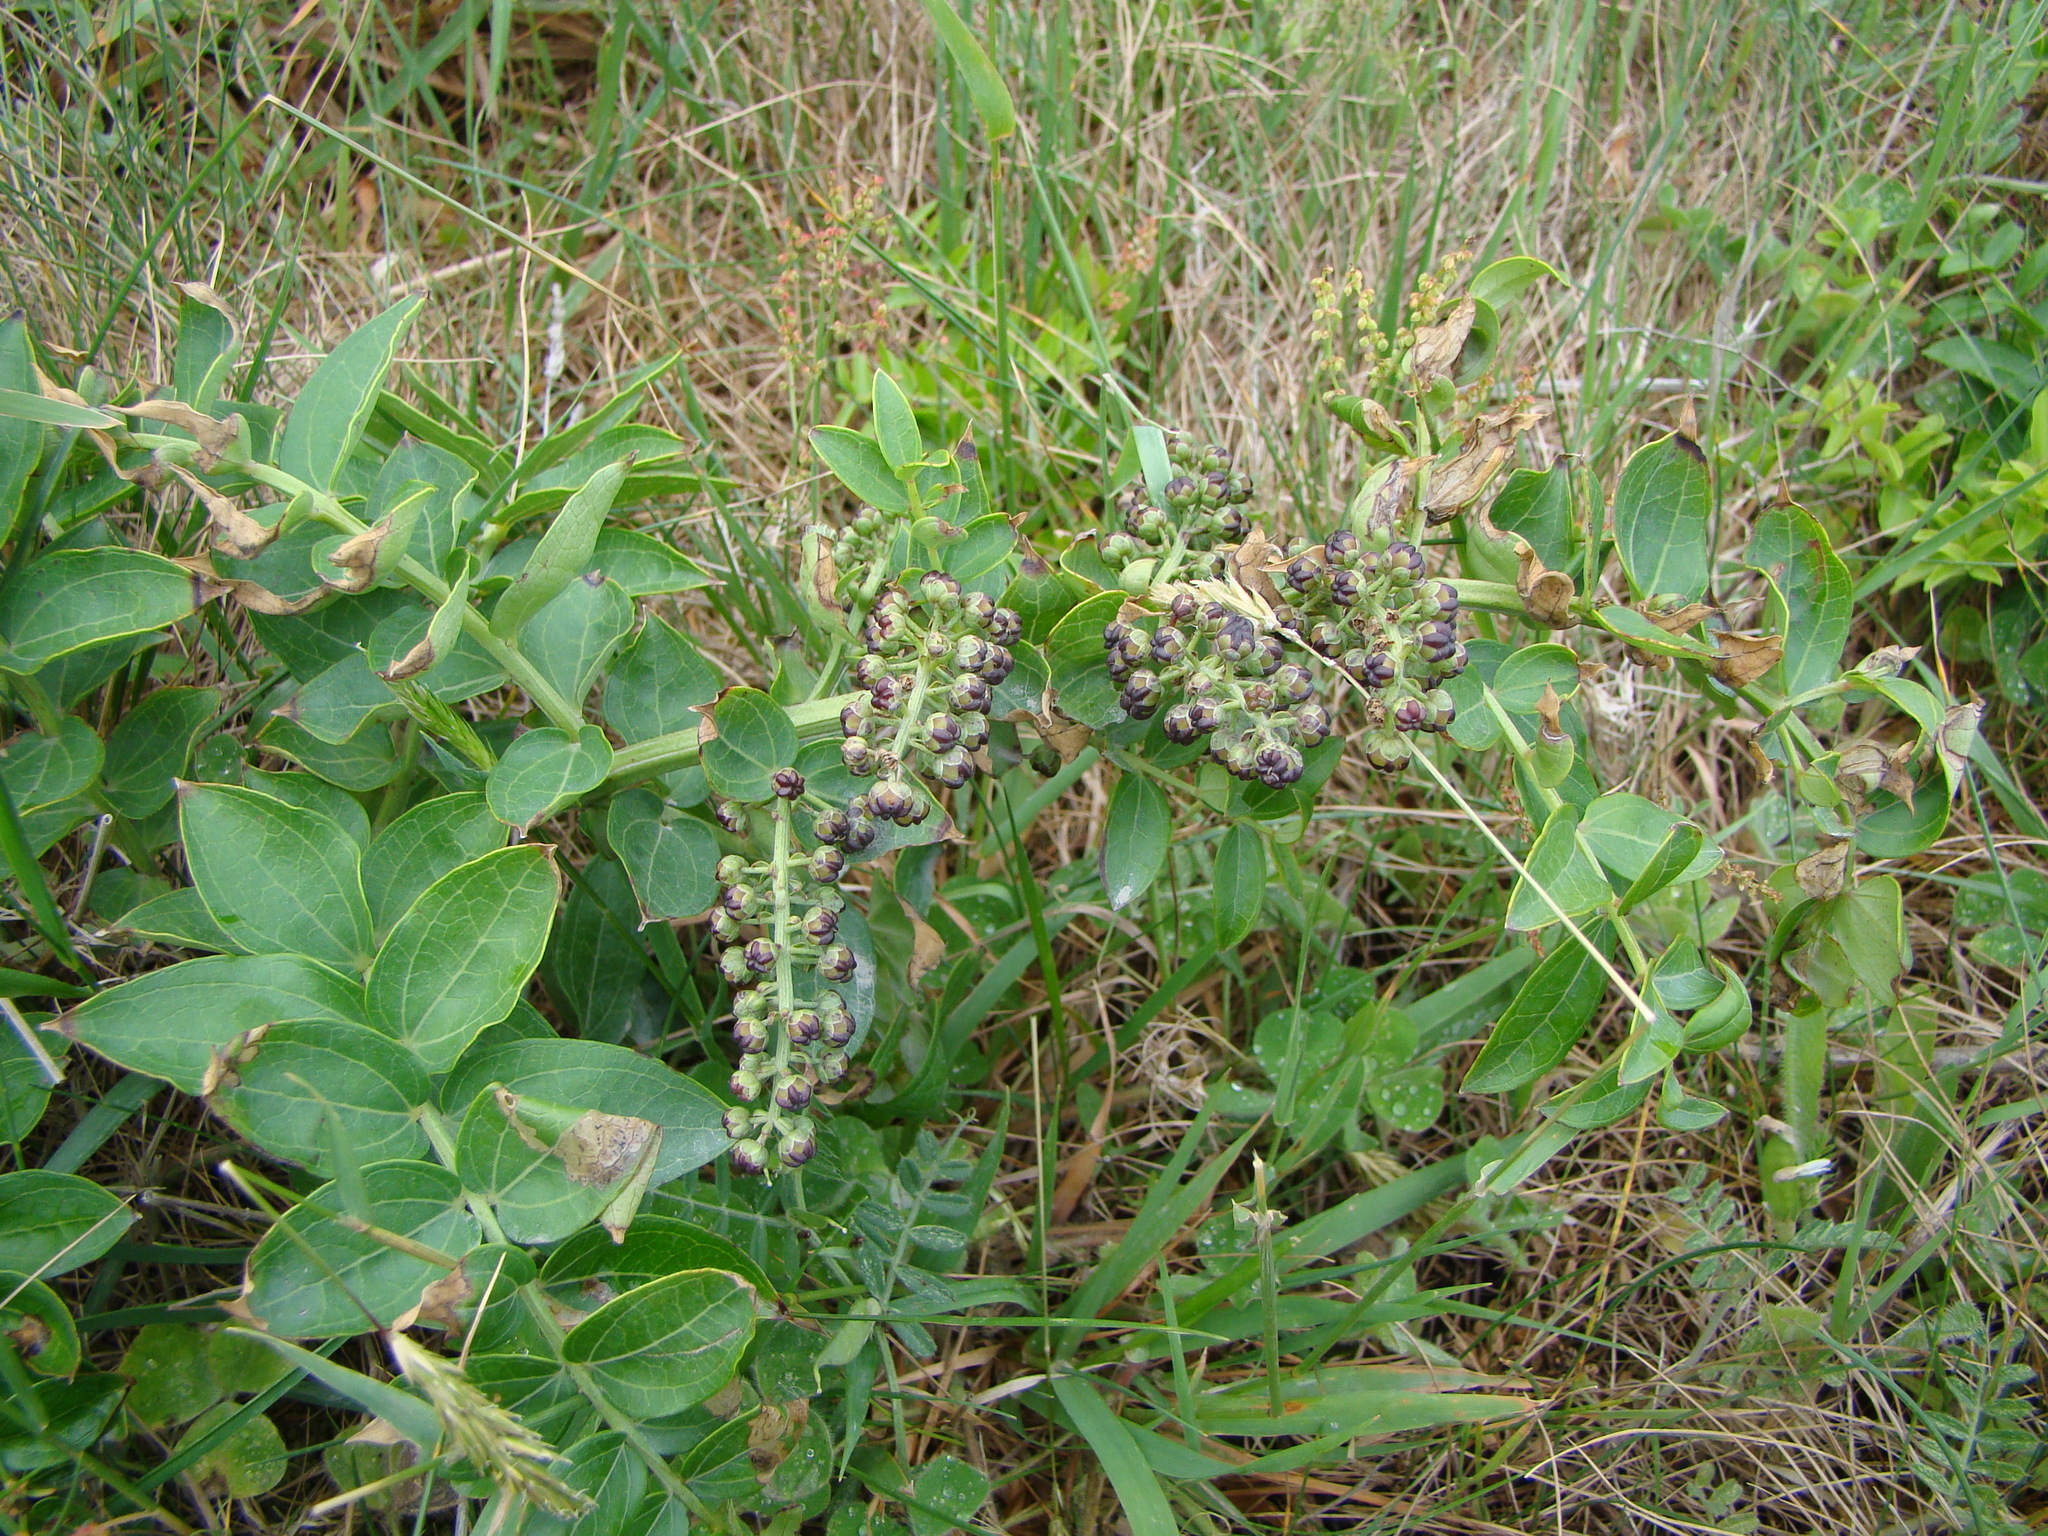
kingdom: Plantae
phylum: Tracheophyta
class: Magnoliopsida
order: Cucurbitales
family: Coriariaceae
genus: Coriaria
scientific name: Coriaria sarmentosa
